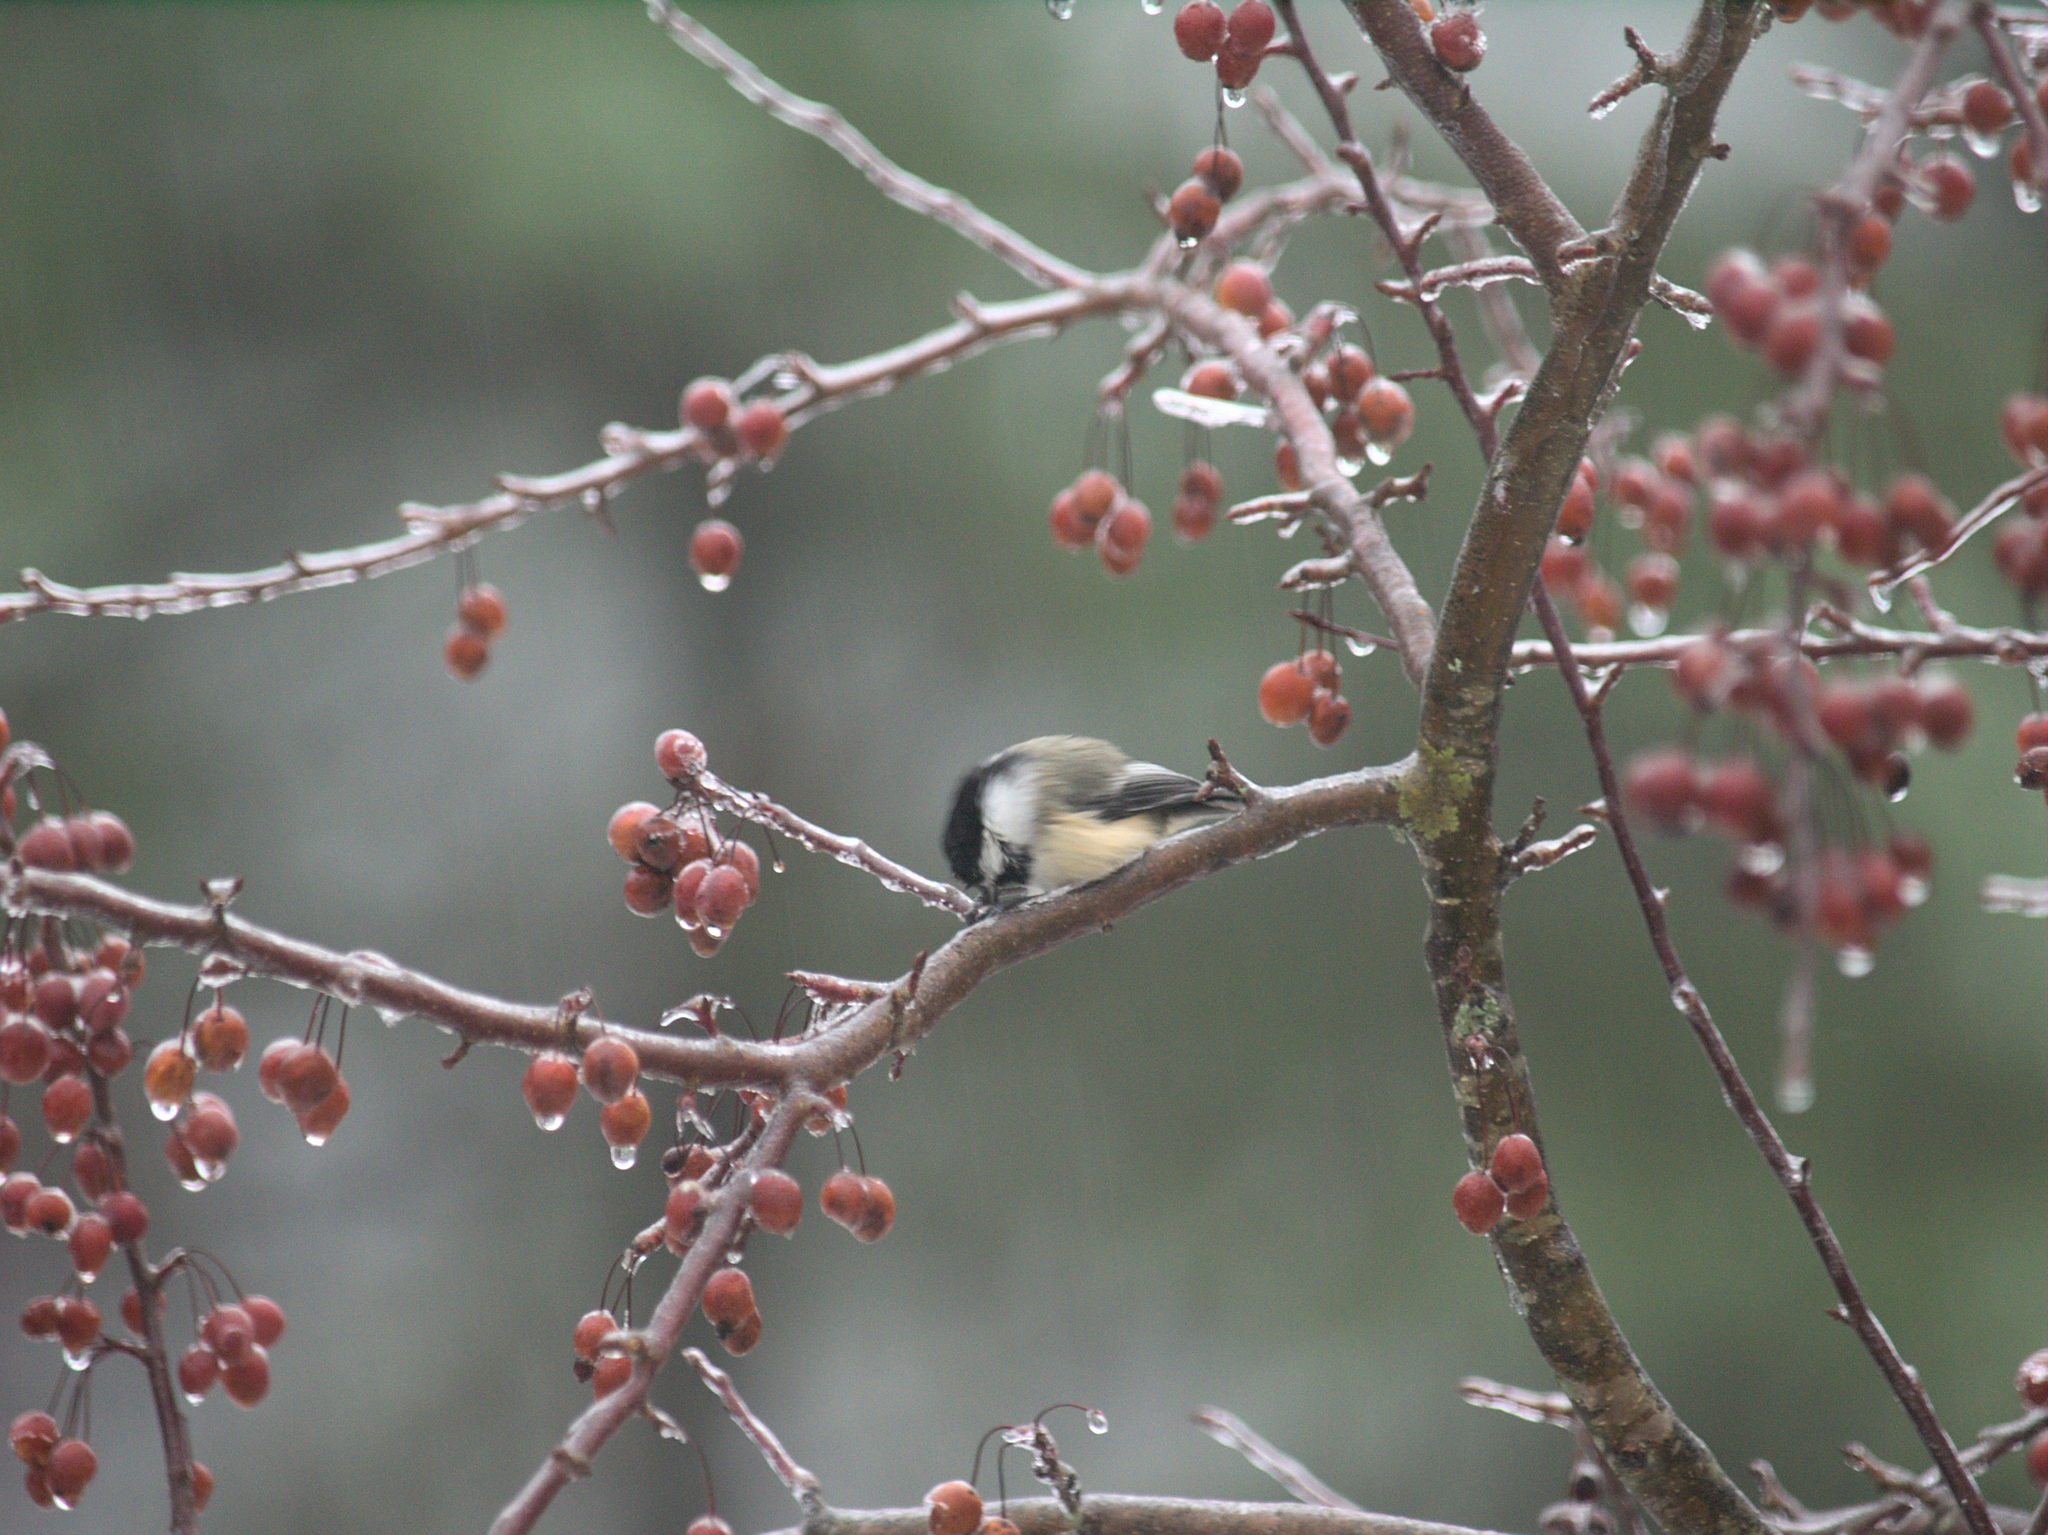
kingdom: Animalia
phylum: Chordata
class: Aves
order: Passeriformes
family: Paridae
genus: Poecile
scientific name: Poecile atricapillus
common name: Black-capped chickadee
